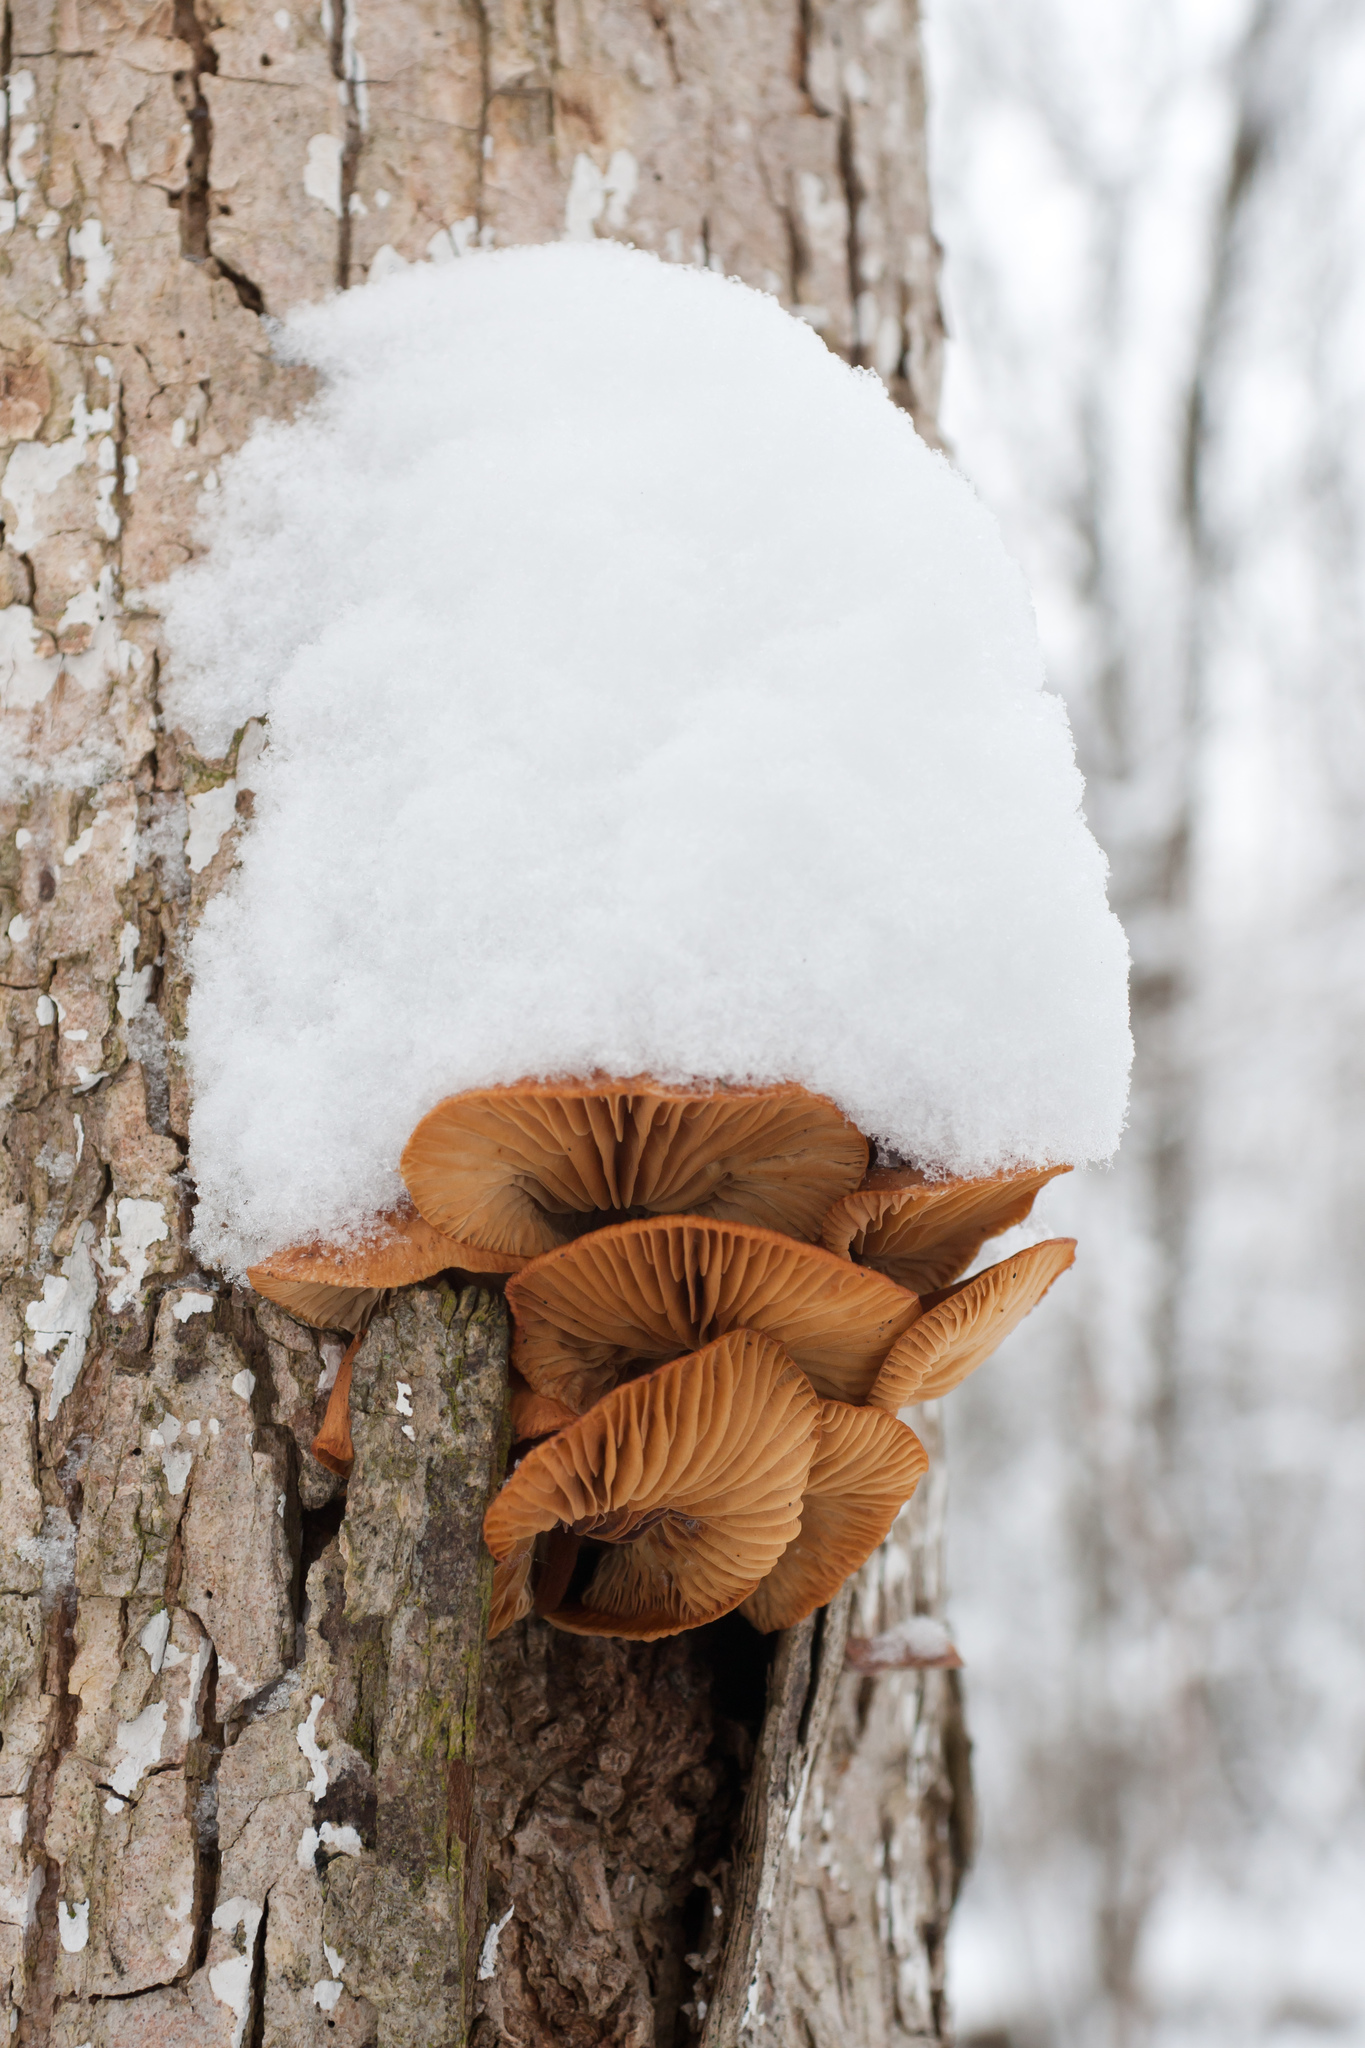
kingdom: Fungi
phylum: Basidiomycota
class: Agaricomycetes
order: Agaricales
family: Physalacriaceae
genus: Flammulina
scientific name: Flammulina
